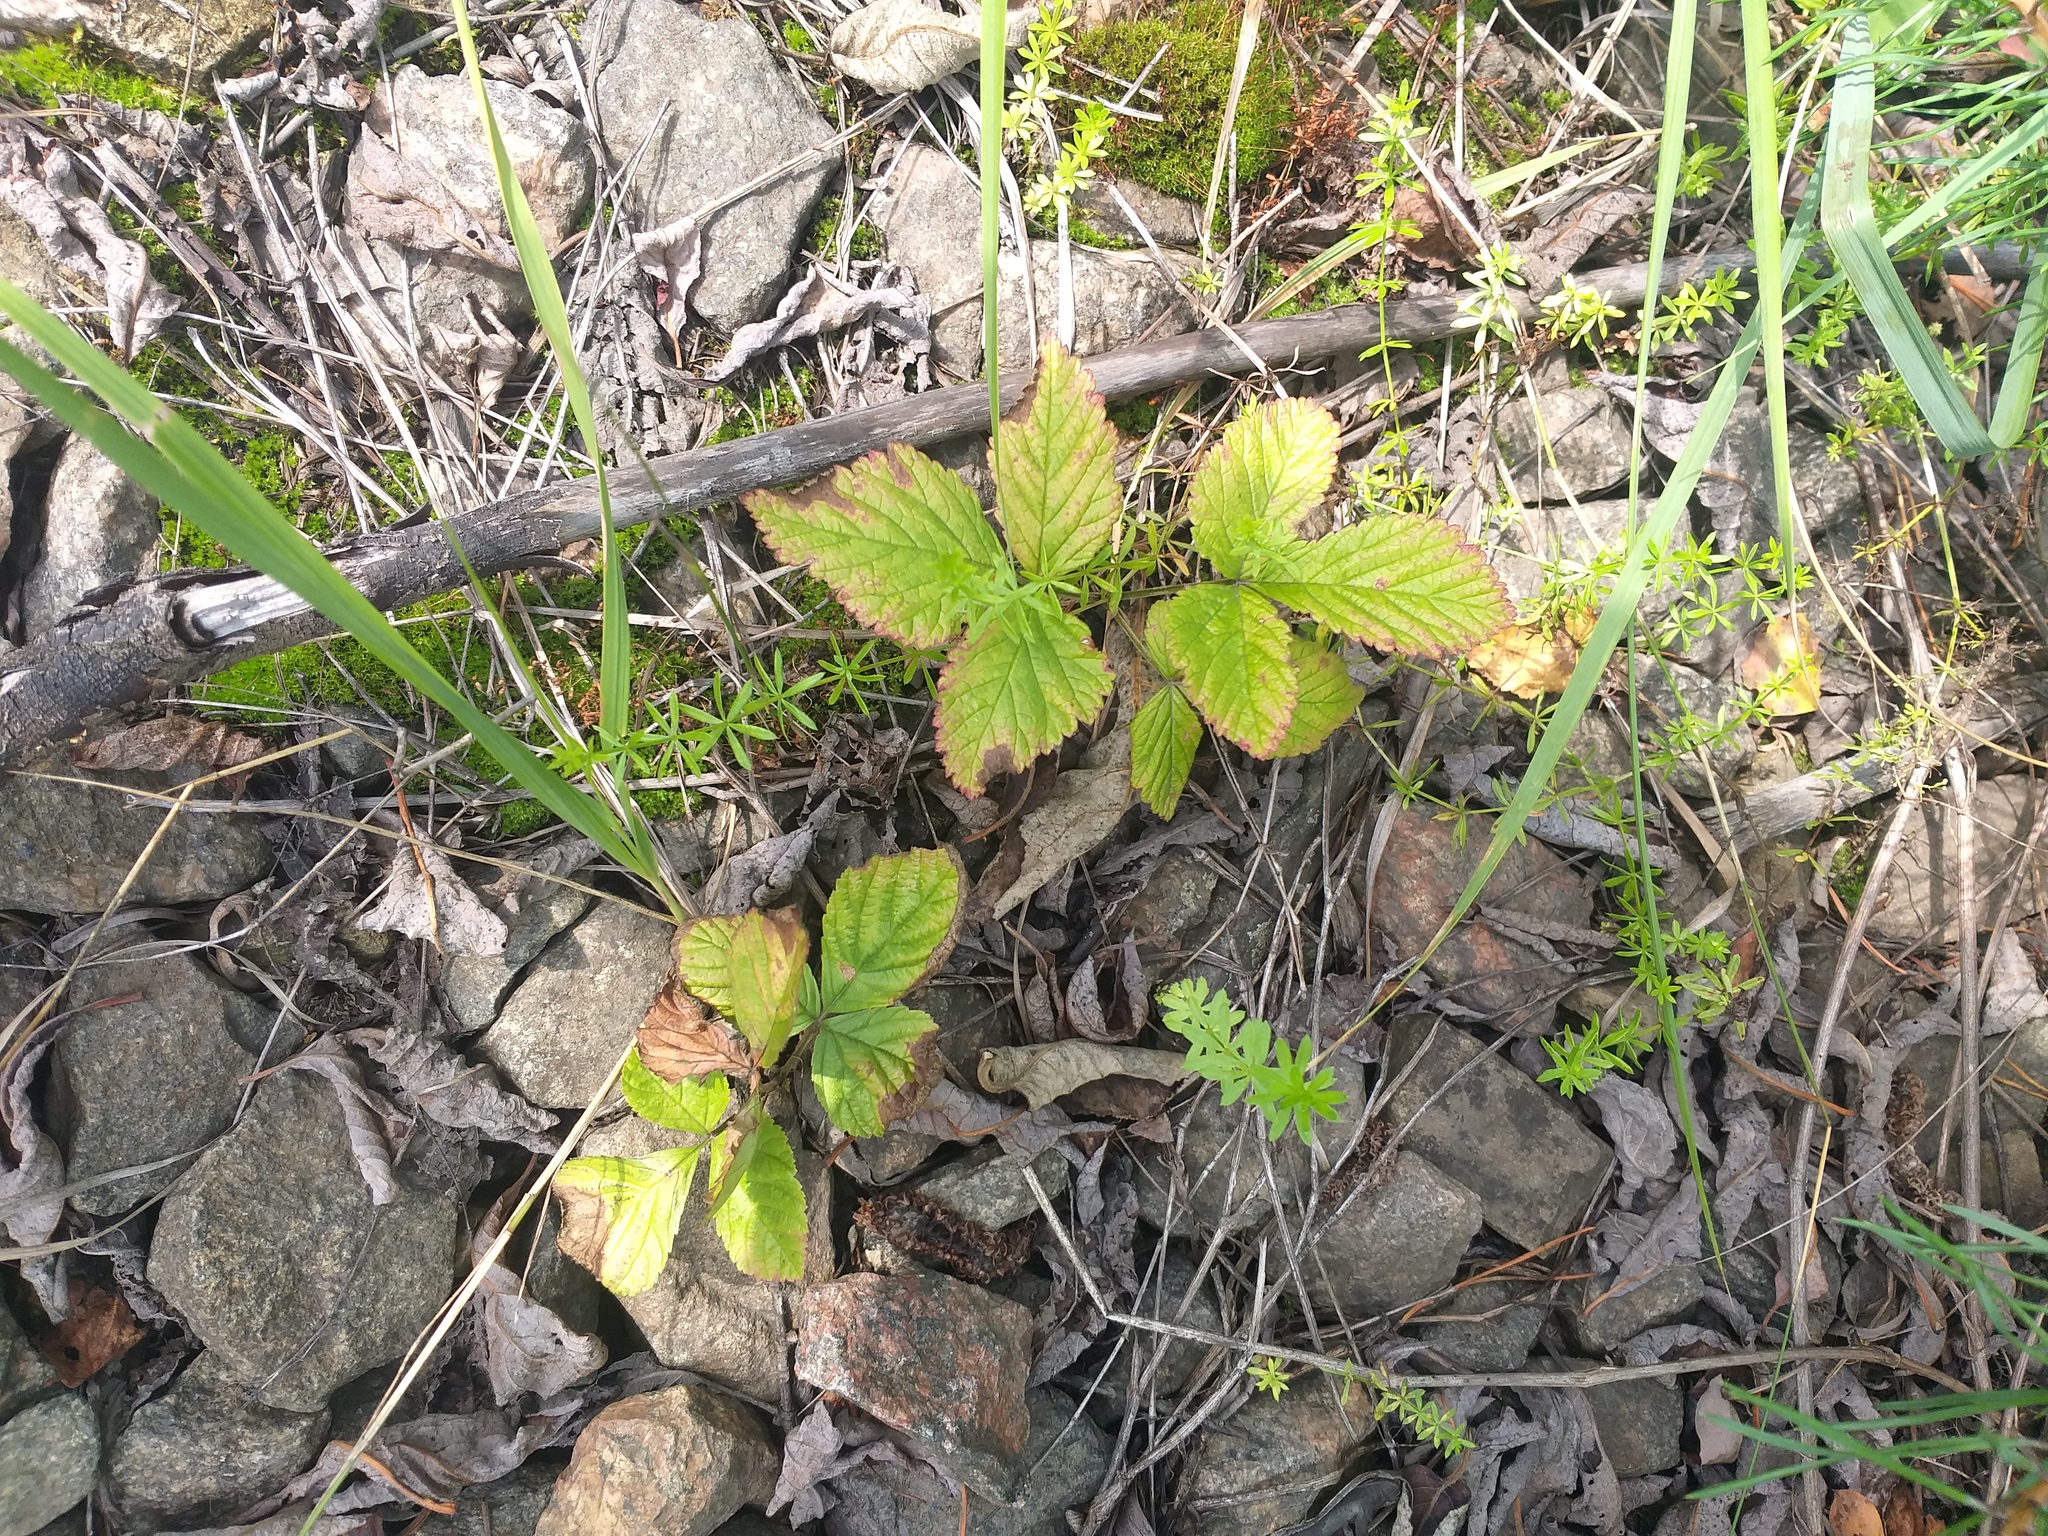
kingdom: Plantae
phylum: Tracheophyta
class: Magnoliopsida
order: Rosales
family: Rosaceae
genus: Rubus
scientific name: Rubus saxatilis
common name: Stone bramble
